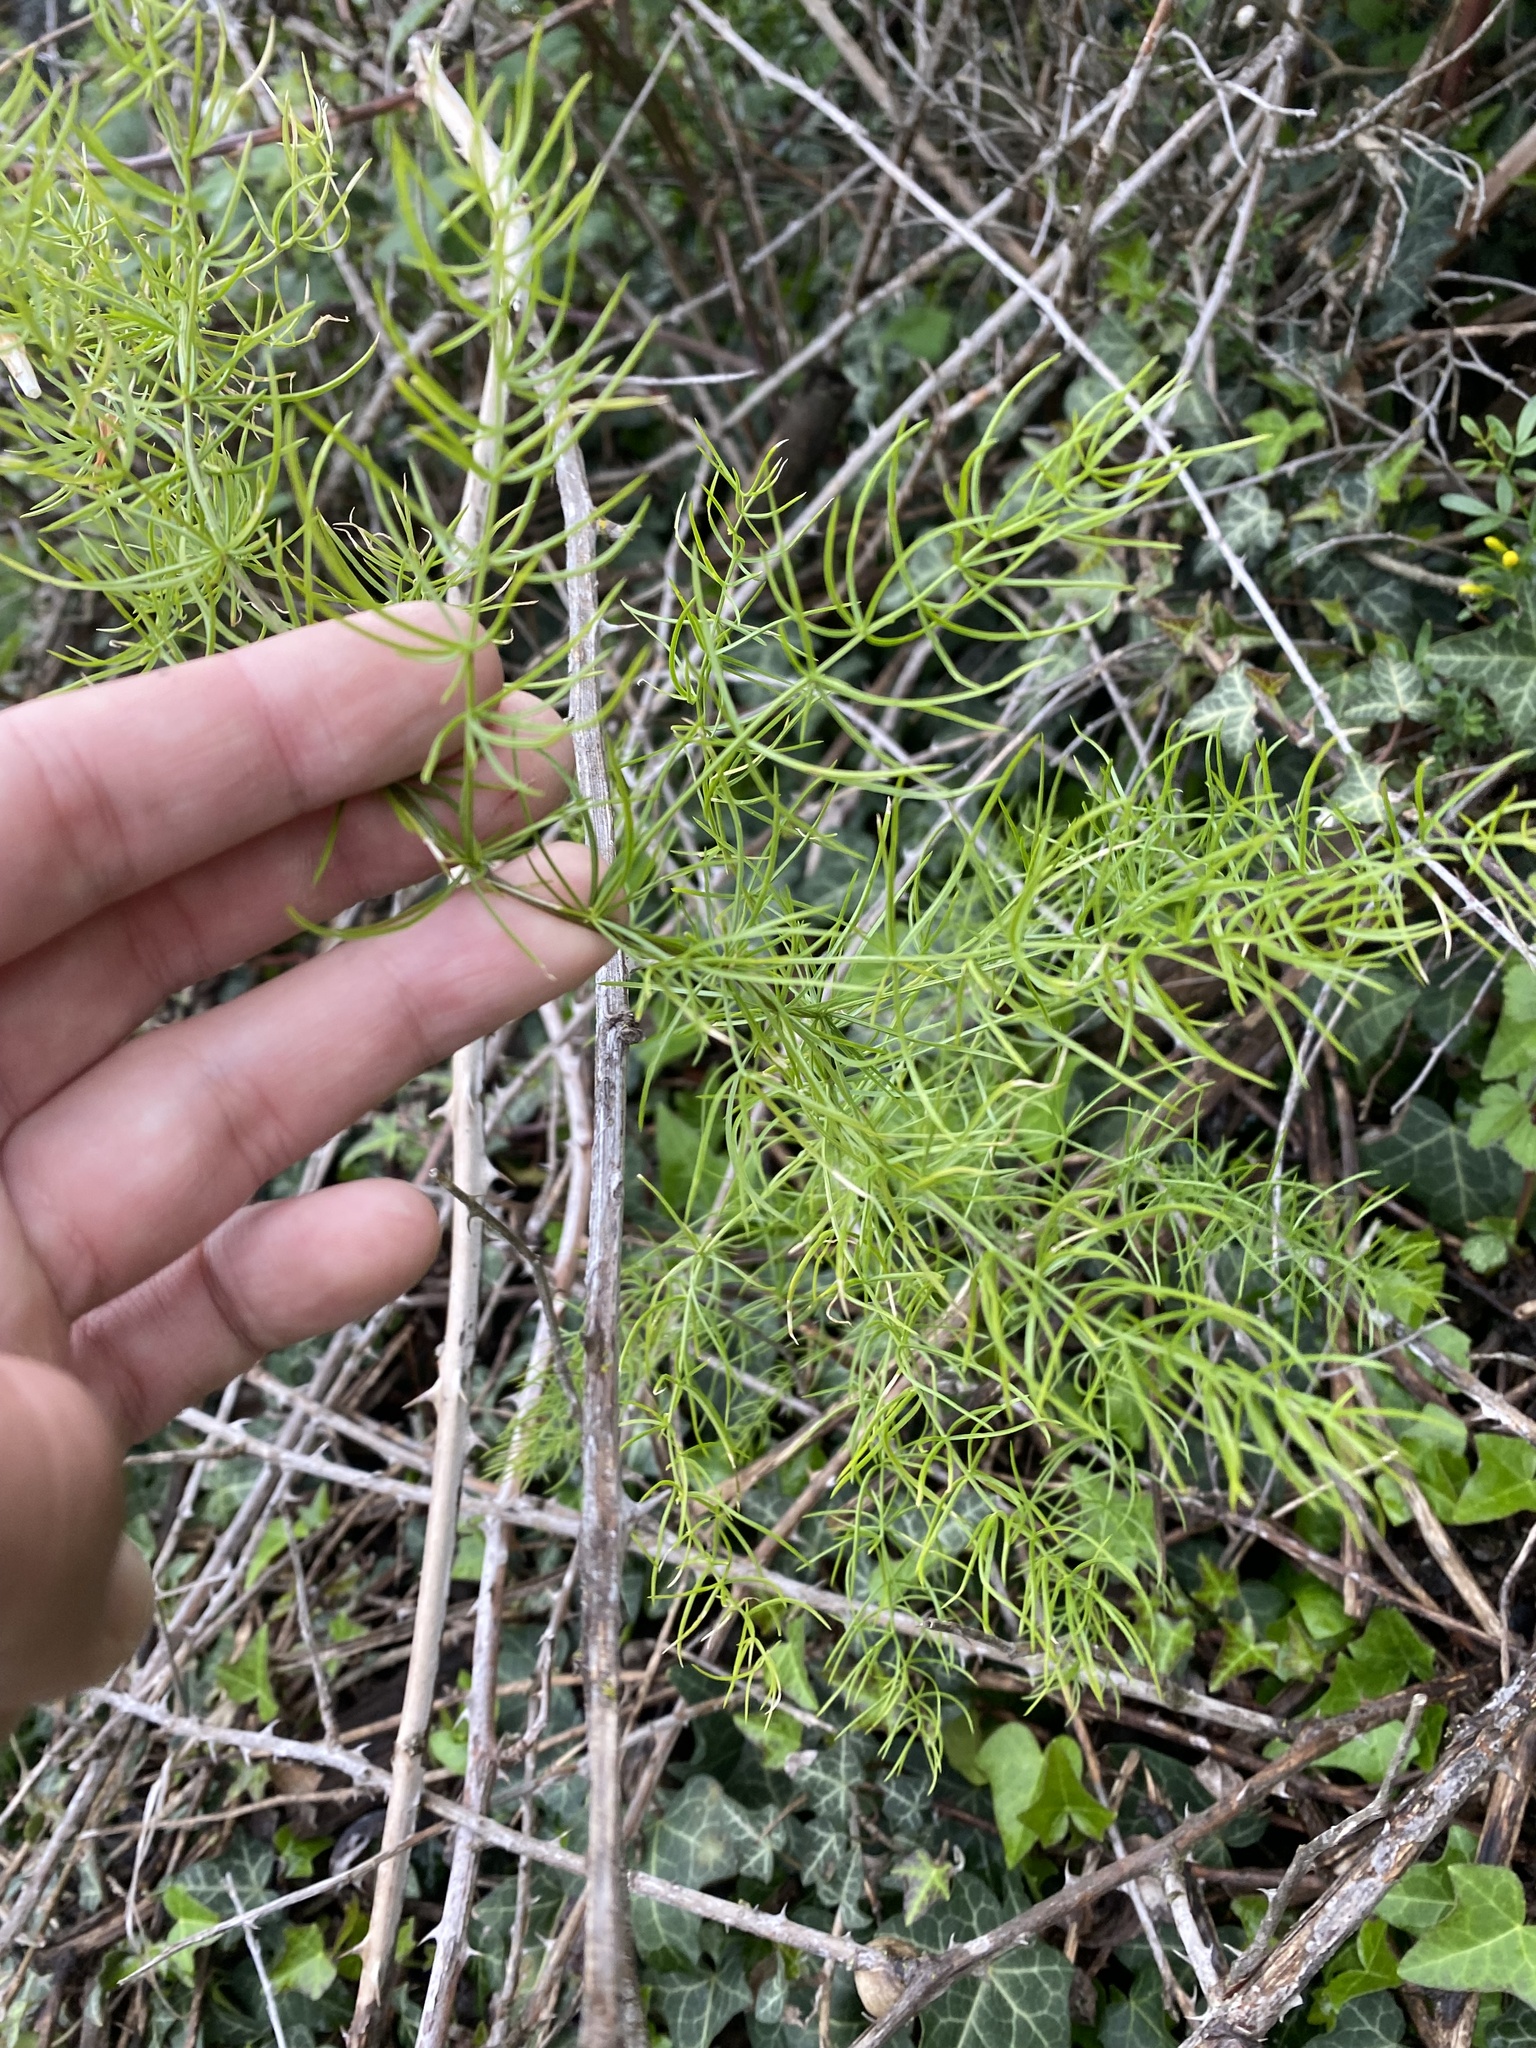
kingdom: Plantae
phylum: Tracheophyta
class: Liliopsida
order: Asparagales
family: Asparagaceae
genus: Asparagus
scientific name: Asparagus verticillatus
